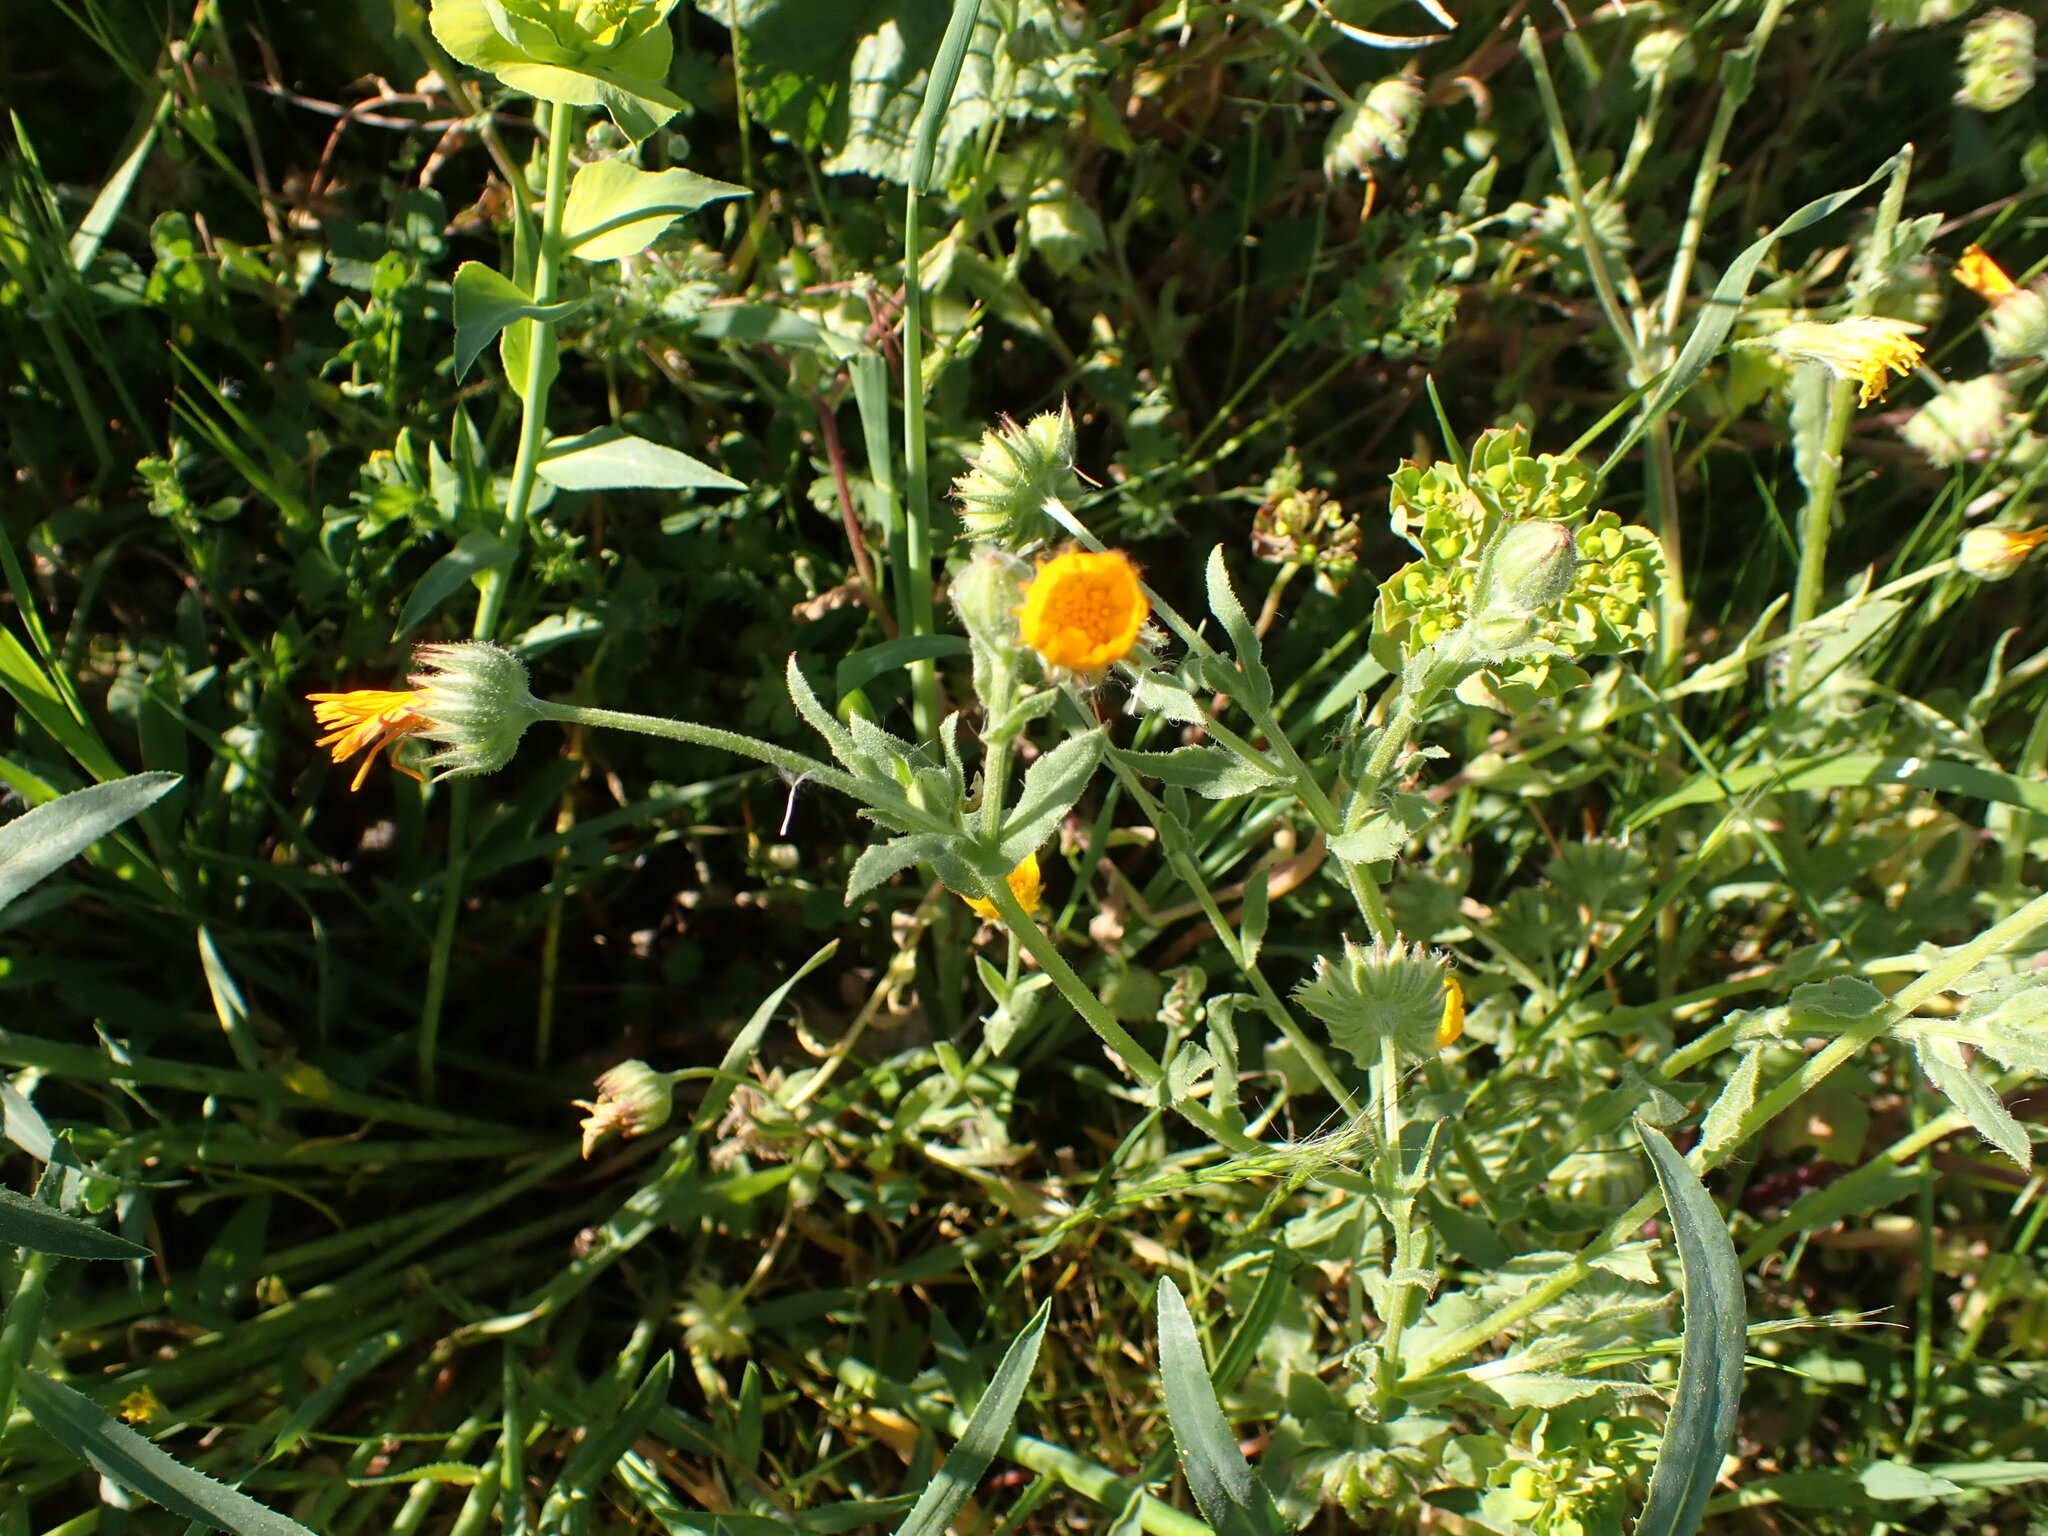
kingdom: Plantae
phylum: Tracheophyta
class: Magnoliopsida
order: Asterales
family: Asteraceae
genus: Calendula
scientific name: Calendula arvensis
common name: Field marigold
